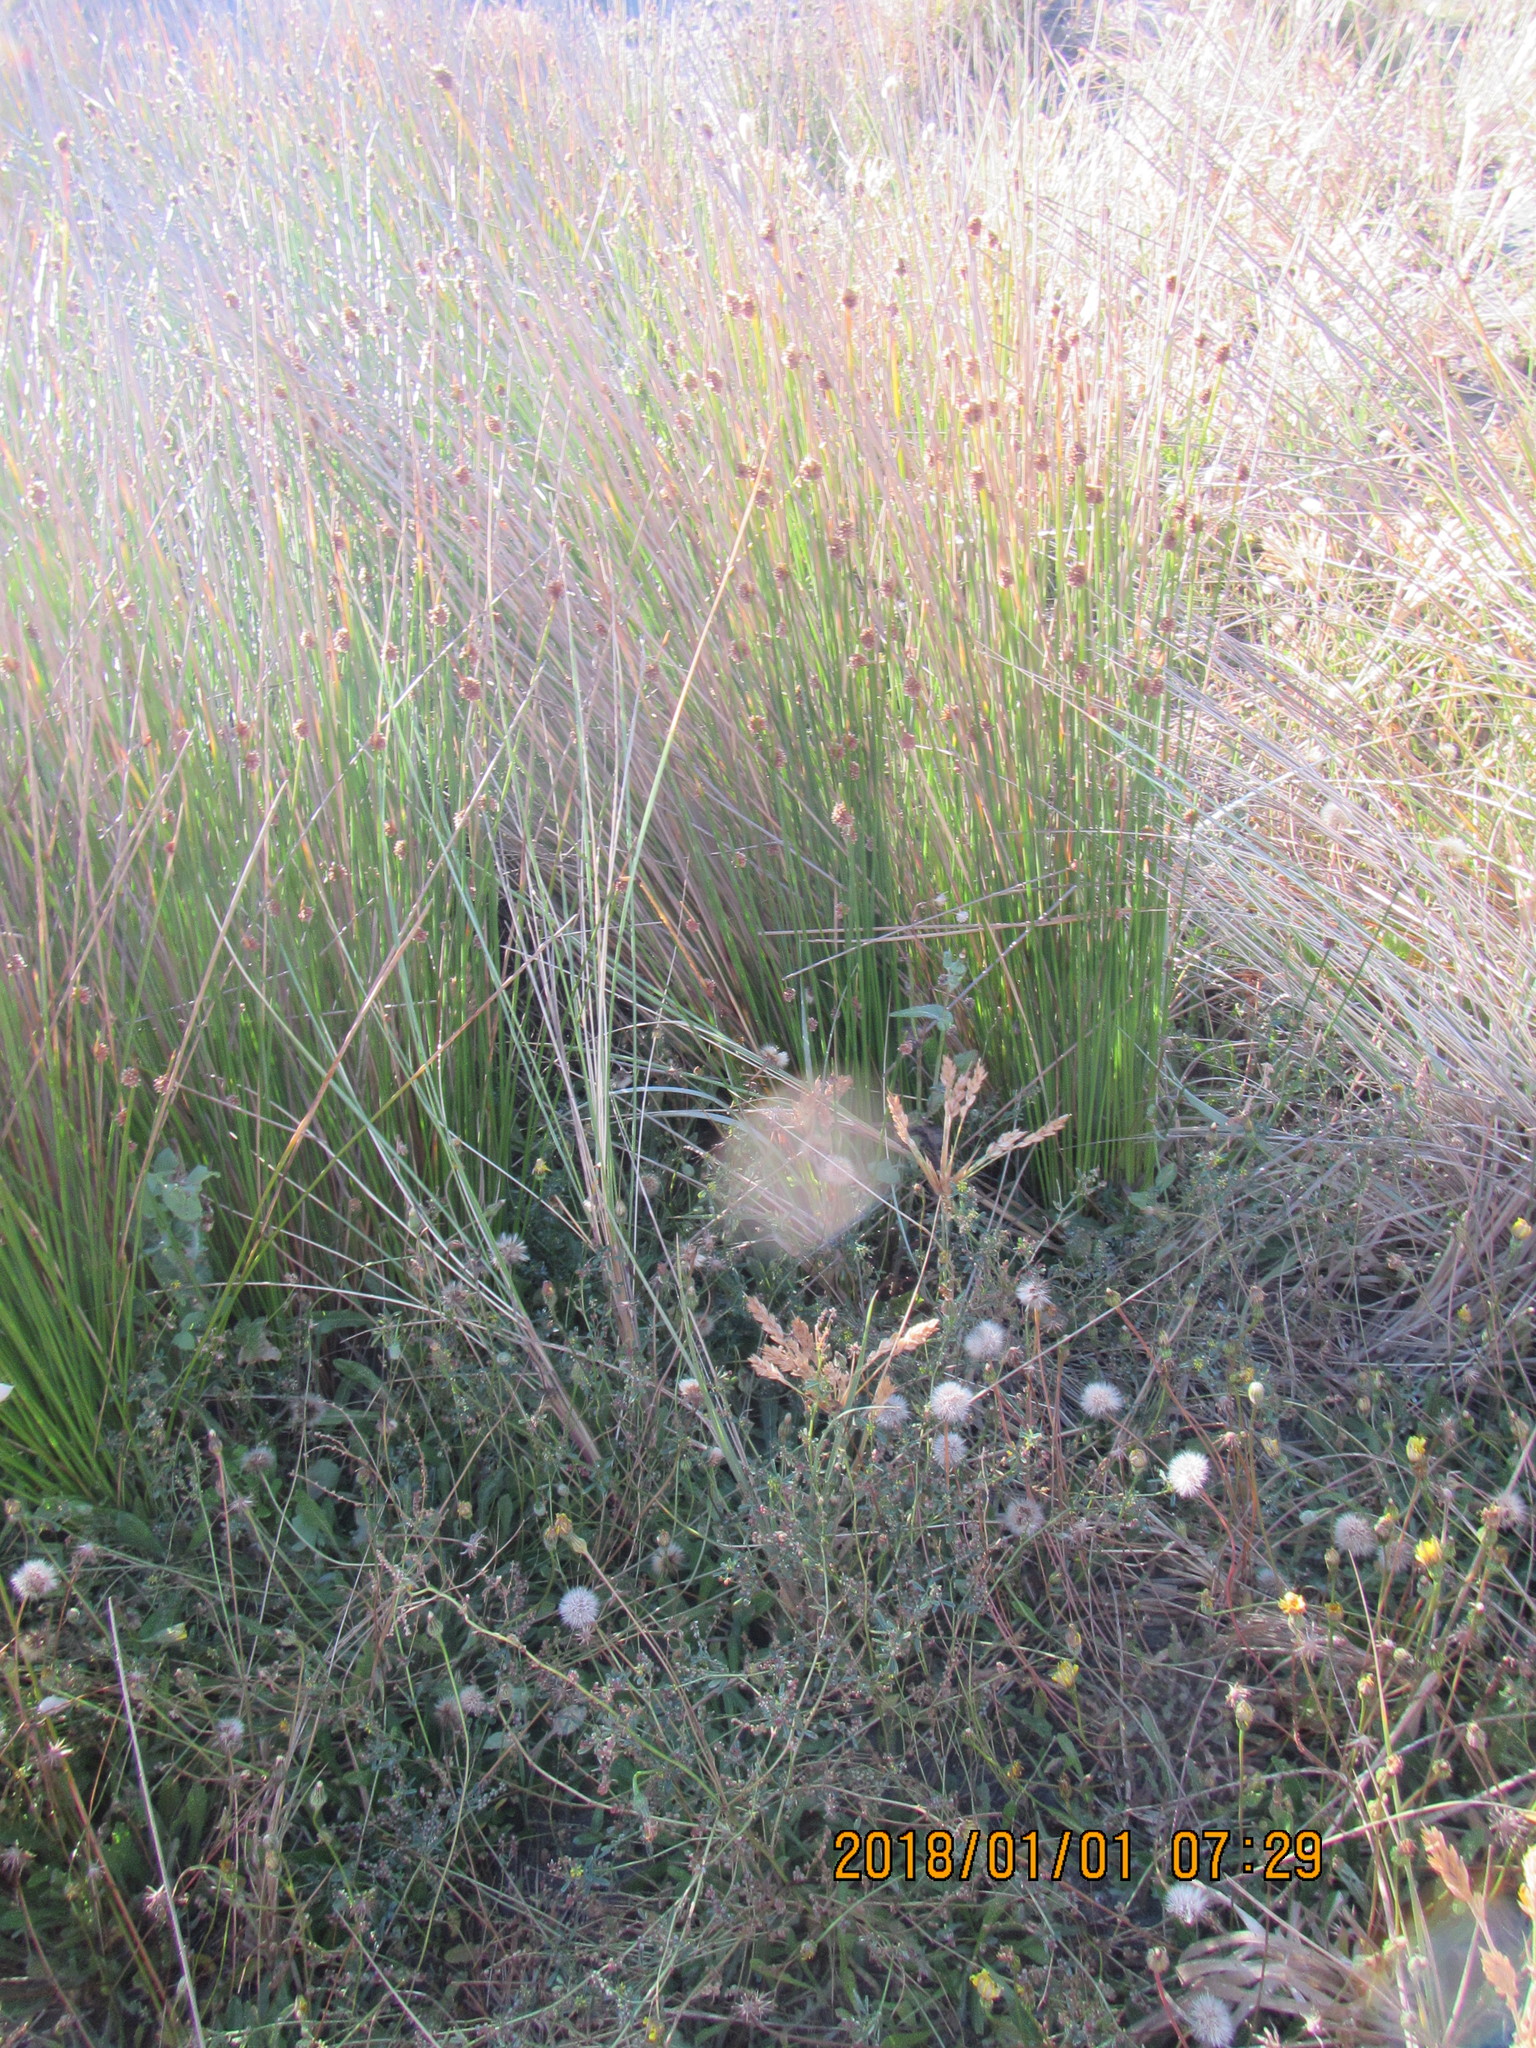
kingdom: Plantae
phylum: Tracheophyta
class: Liliopsida
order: Poales
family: Cyperaceae
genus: Ficinia
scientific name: Ficinia nodosa
